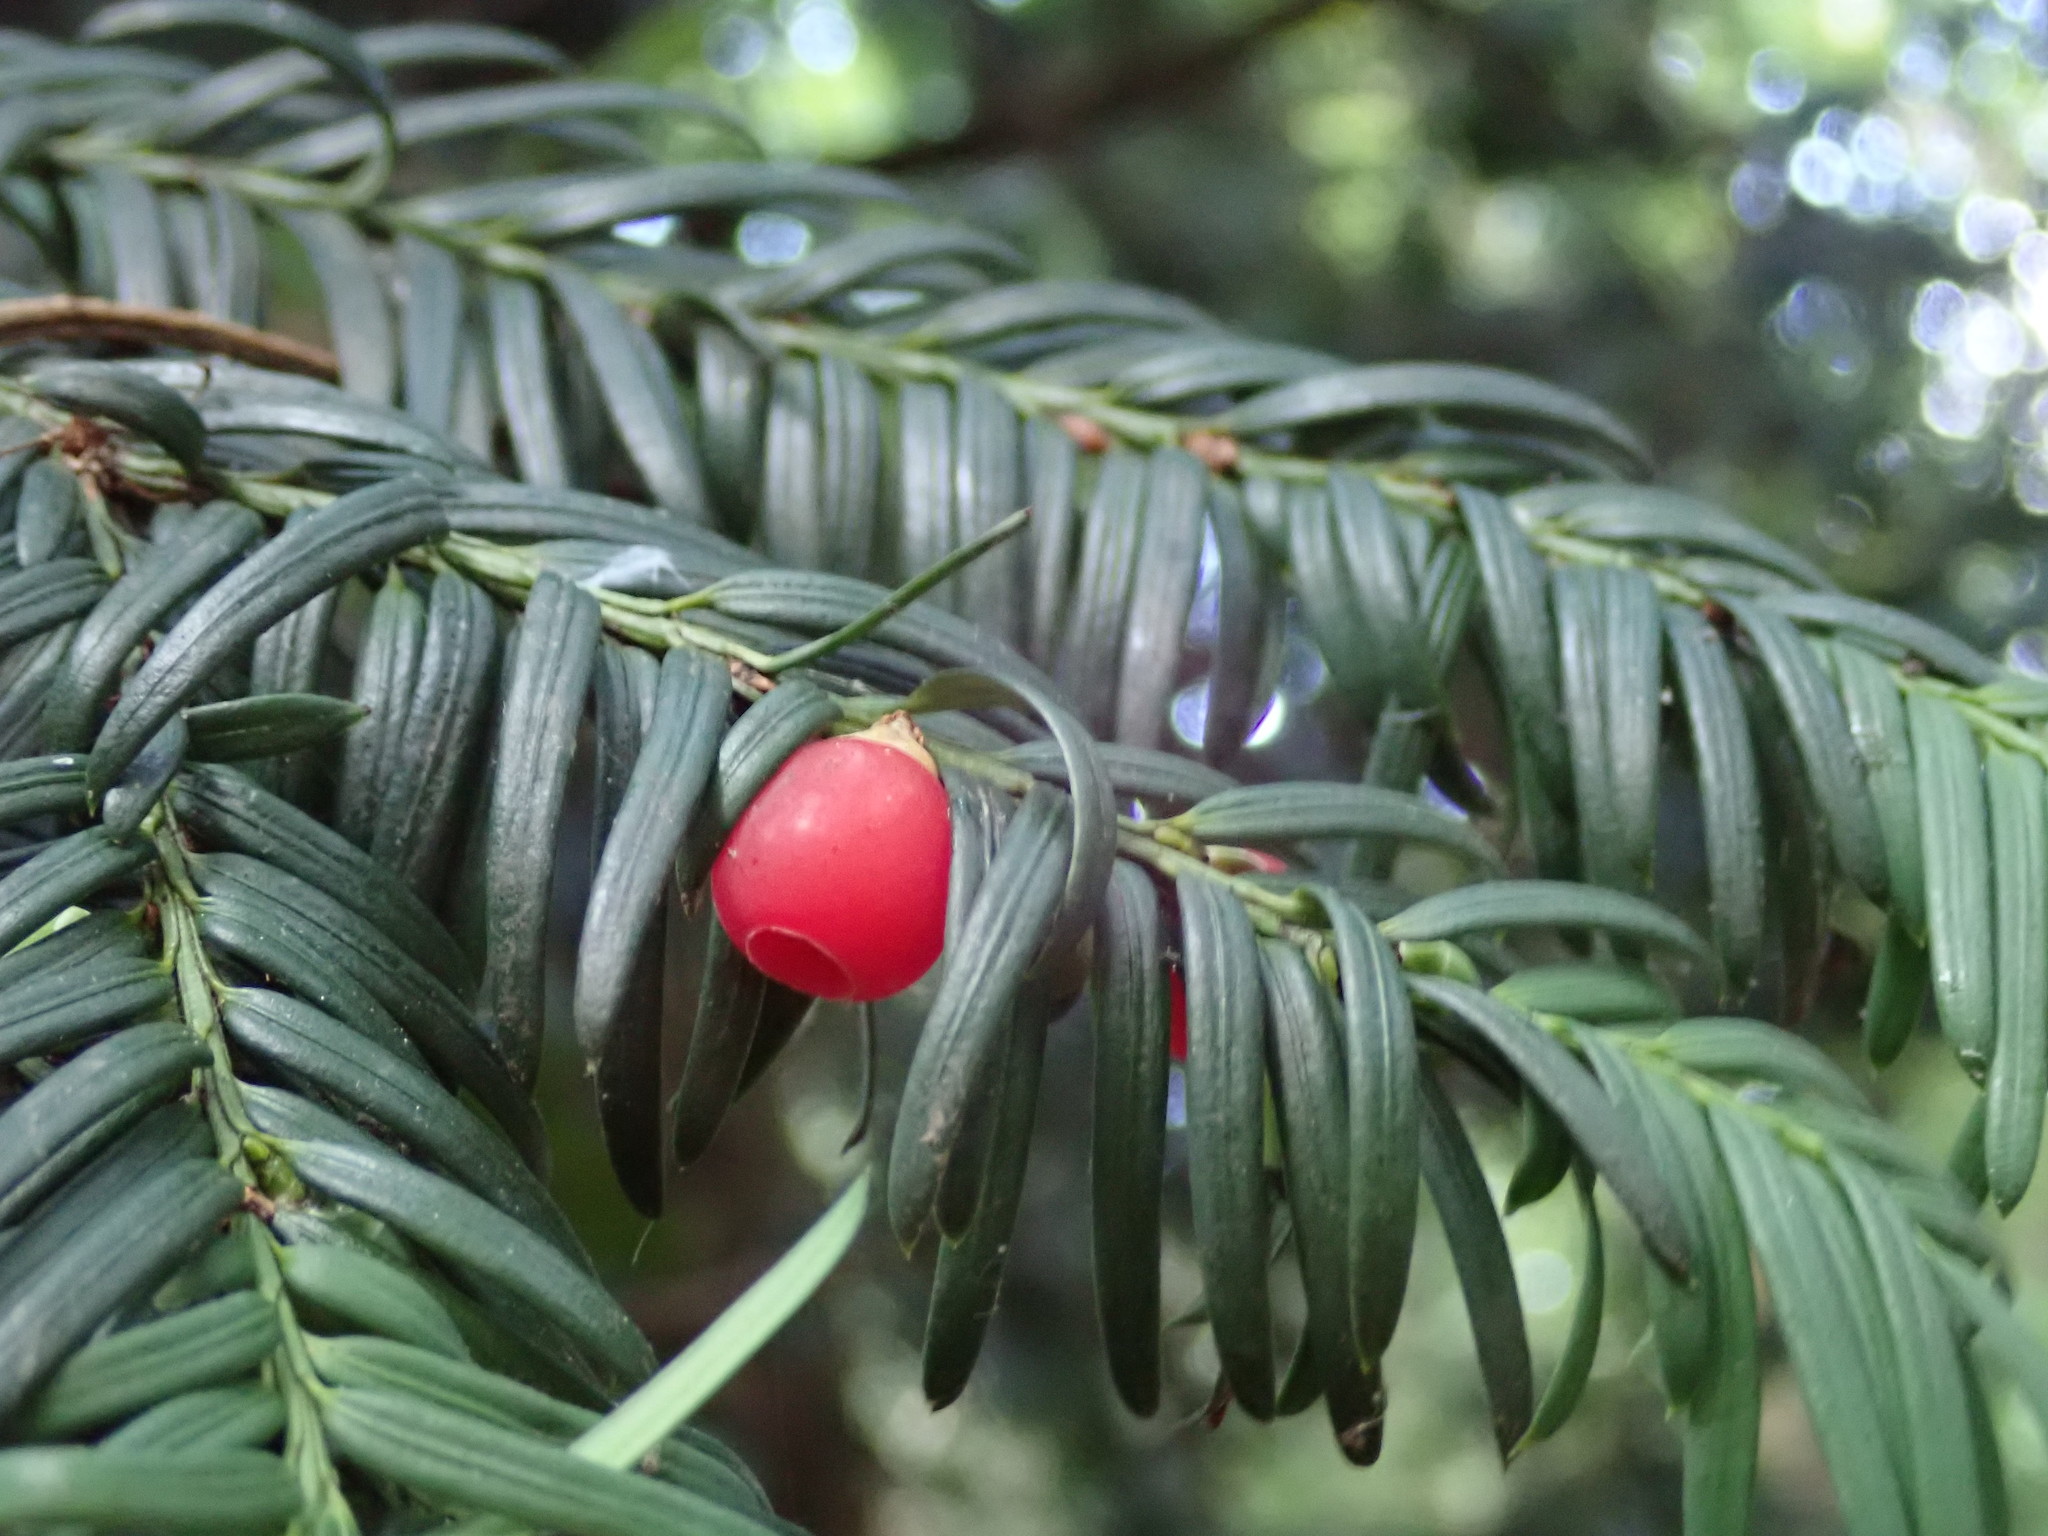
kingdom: Plantae
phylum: Tracheophyta
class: Pinopsida
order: Pinales
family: Taxaceae
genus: Taxus
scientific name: Taxus baccata
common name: Yew
